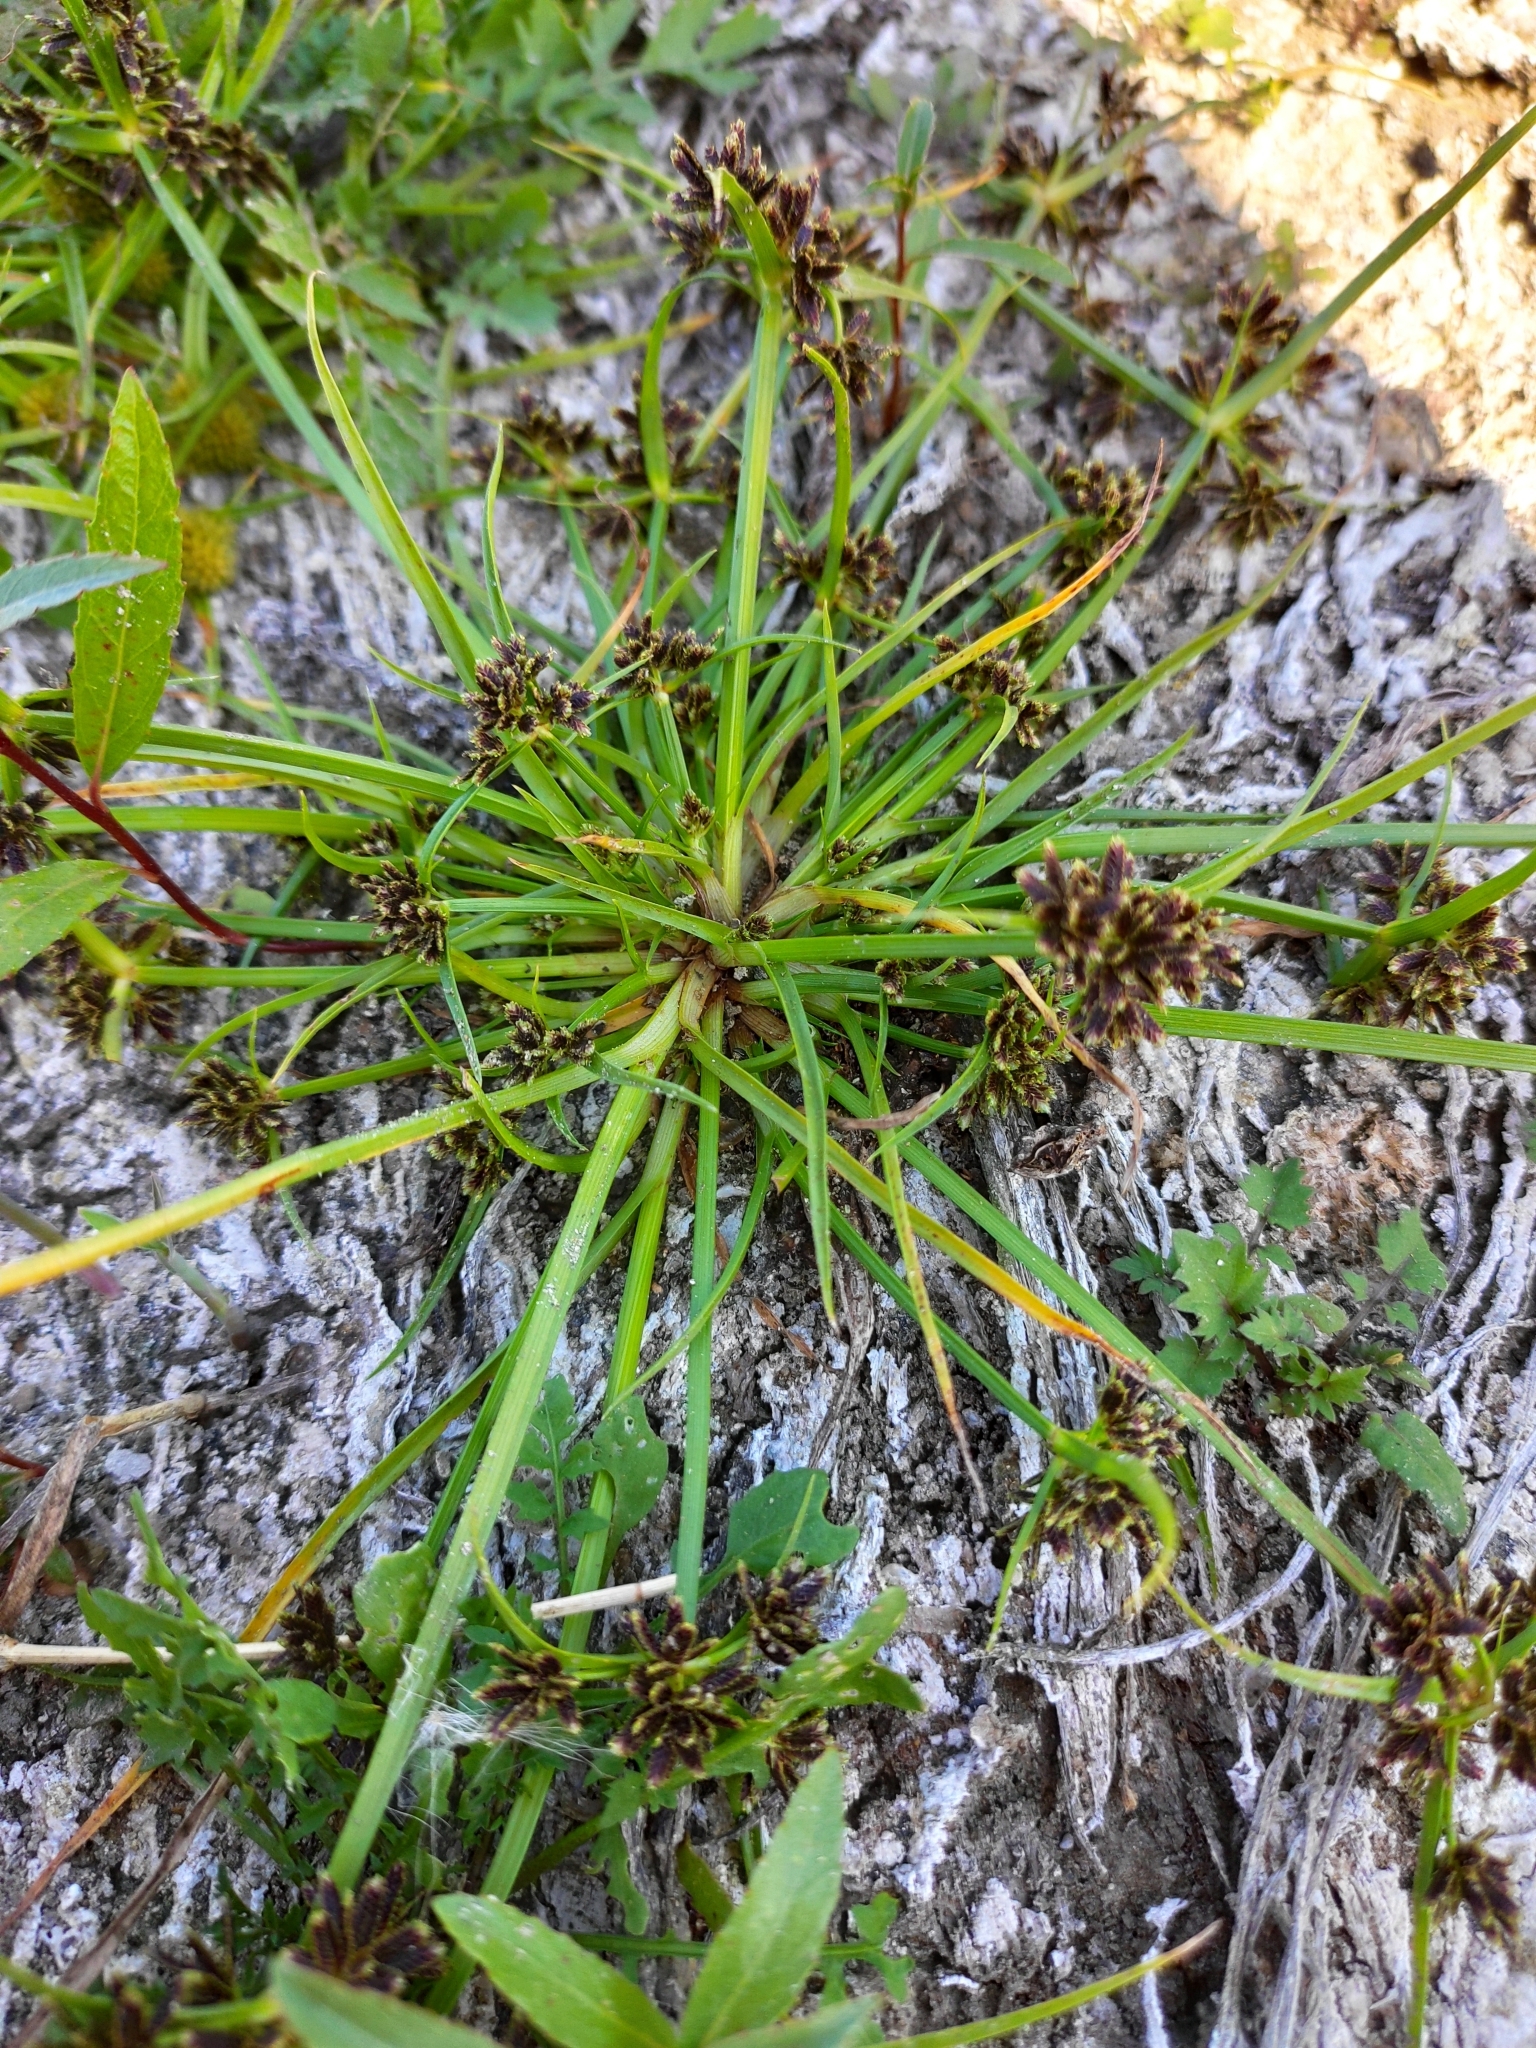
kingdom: Plantae
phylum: Tracheophyta
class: Liliopsida
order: Poales
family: Cyperaceae
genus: Cyperus
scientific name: Cyperus fuscus
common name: Brown galingale
